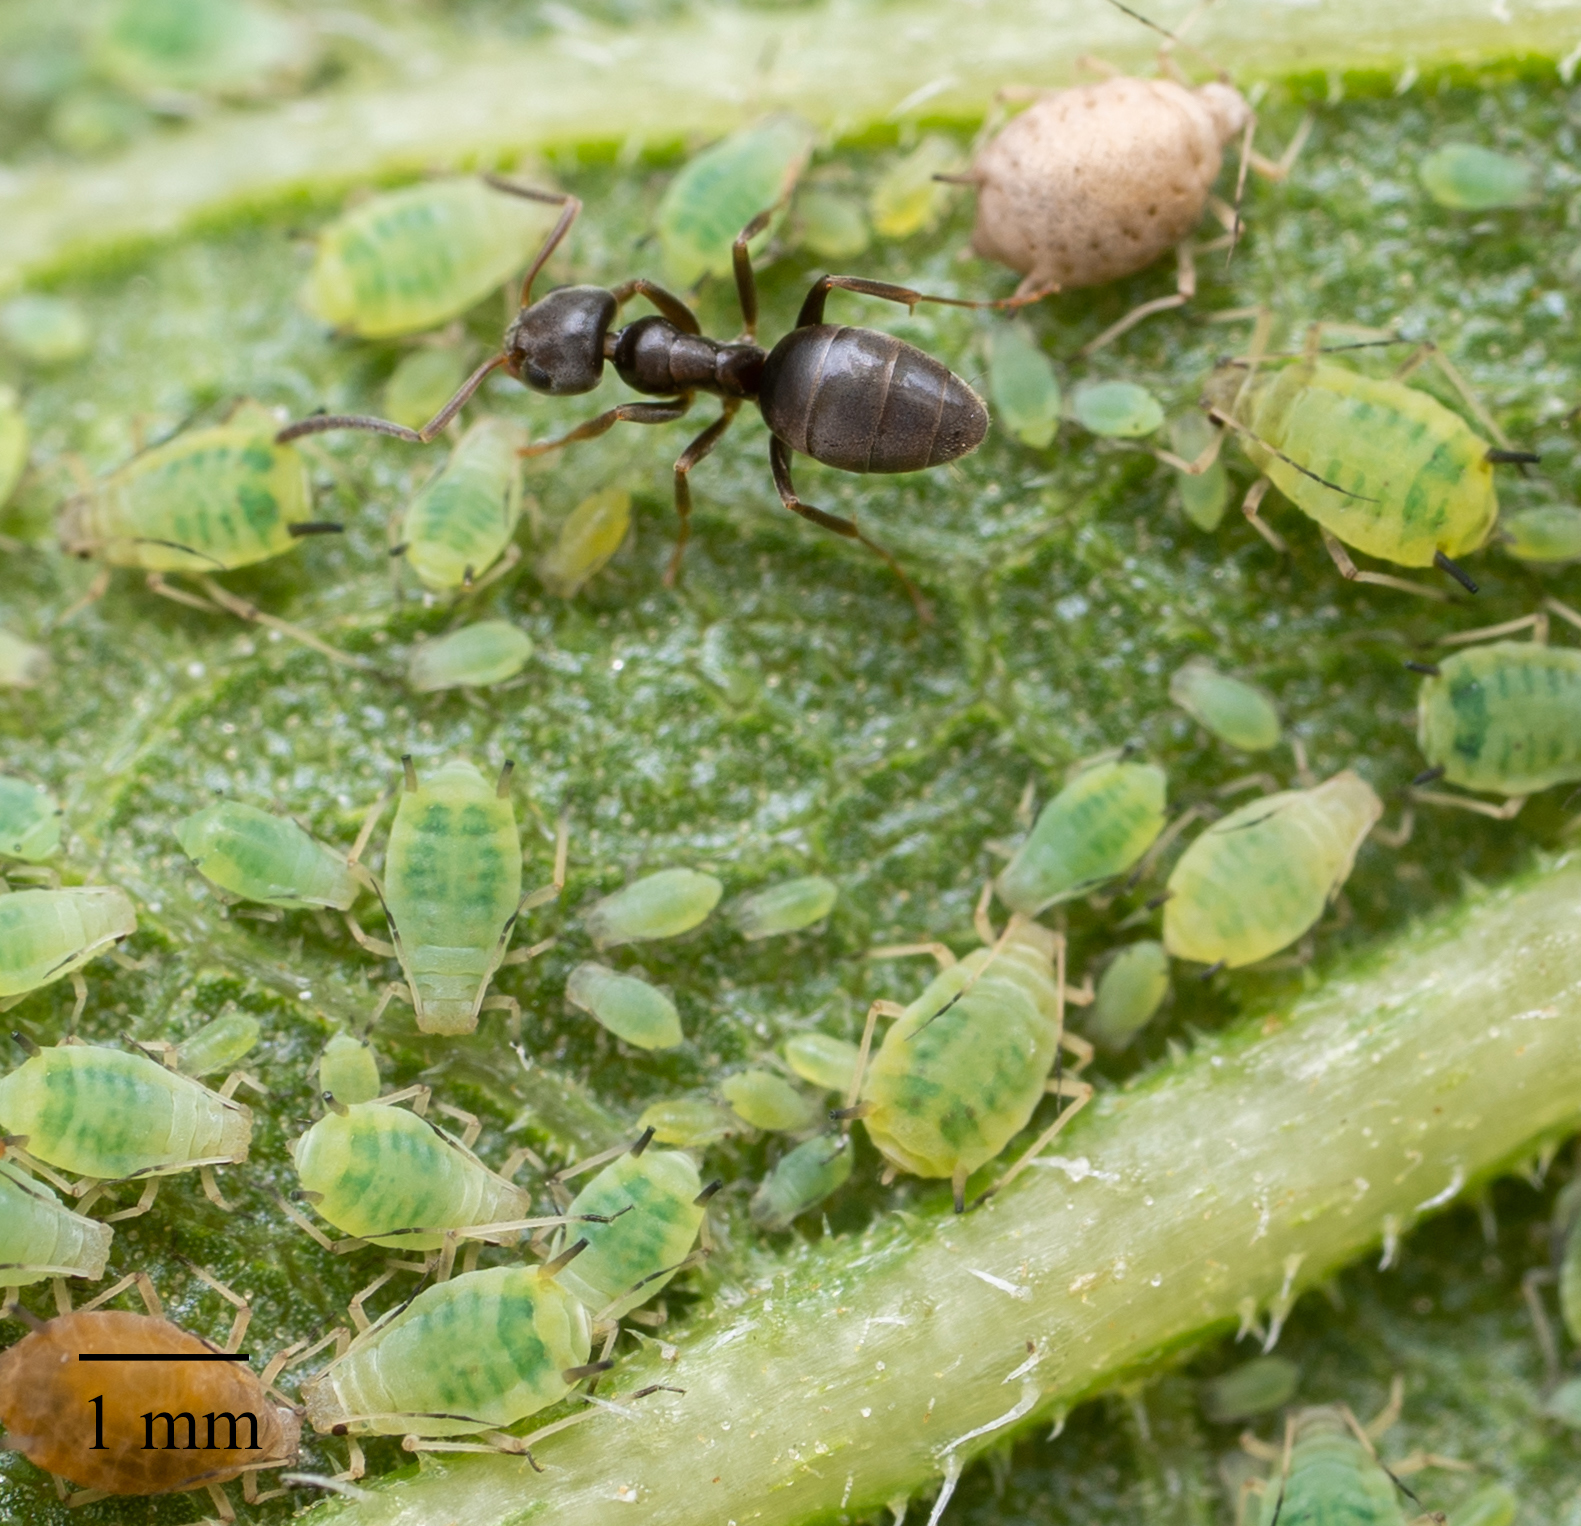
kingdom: Animalia
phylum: Arthropoda
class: Insecta
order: Hymenoptera
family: Formicidae
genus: Tapinoma
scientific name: Tapinoma sessile
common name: Odorous house ant
